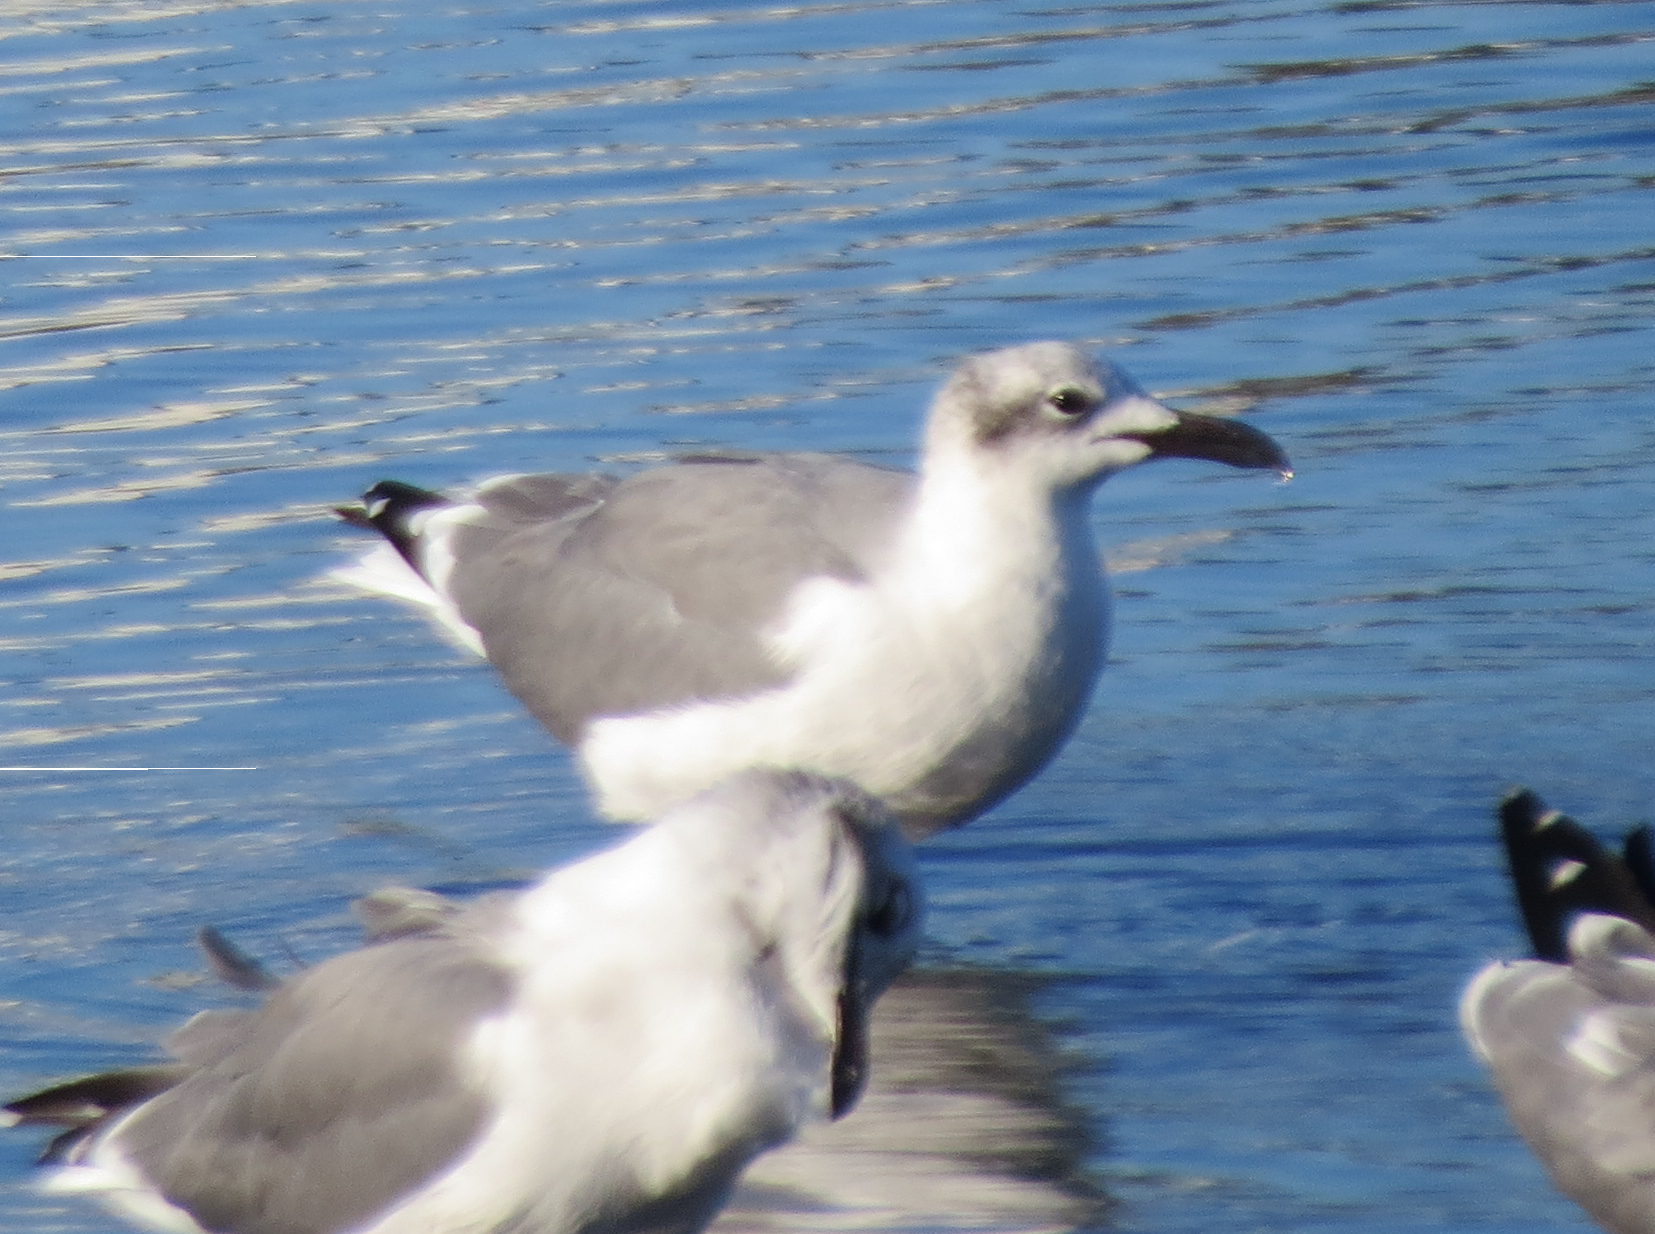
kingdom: Animalia
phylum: Chordata
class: Aves
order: Charadriiformes
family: Laridae
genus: Leucophaeus
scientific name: Leucophaeus atricilla
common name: Laughing gull
